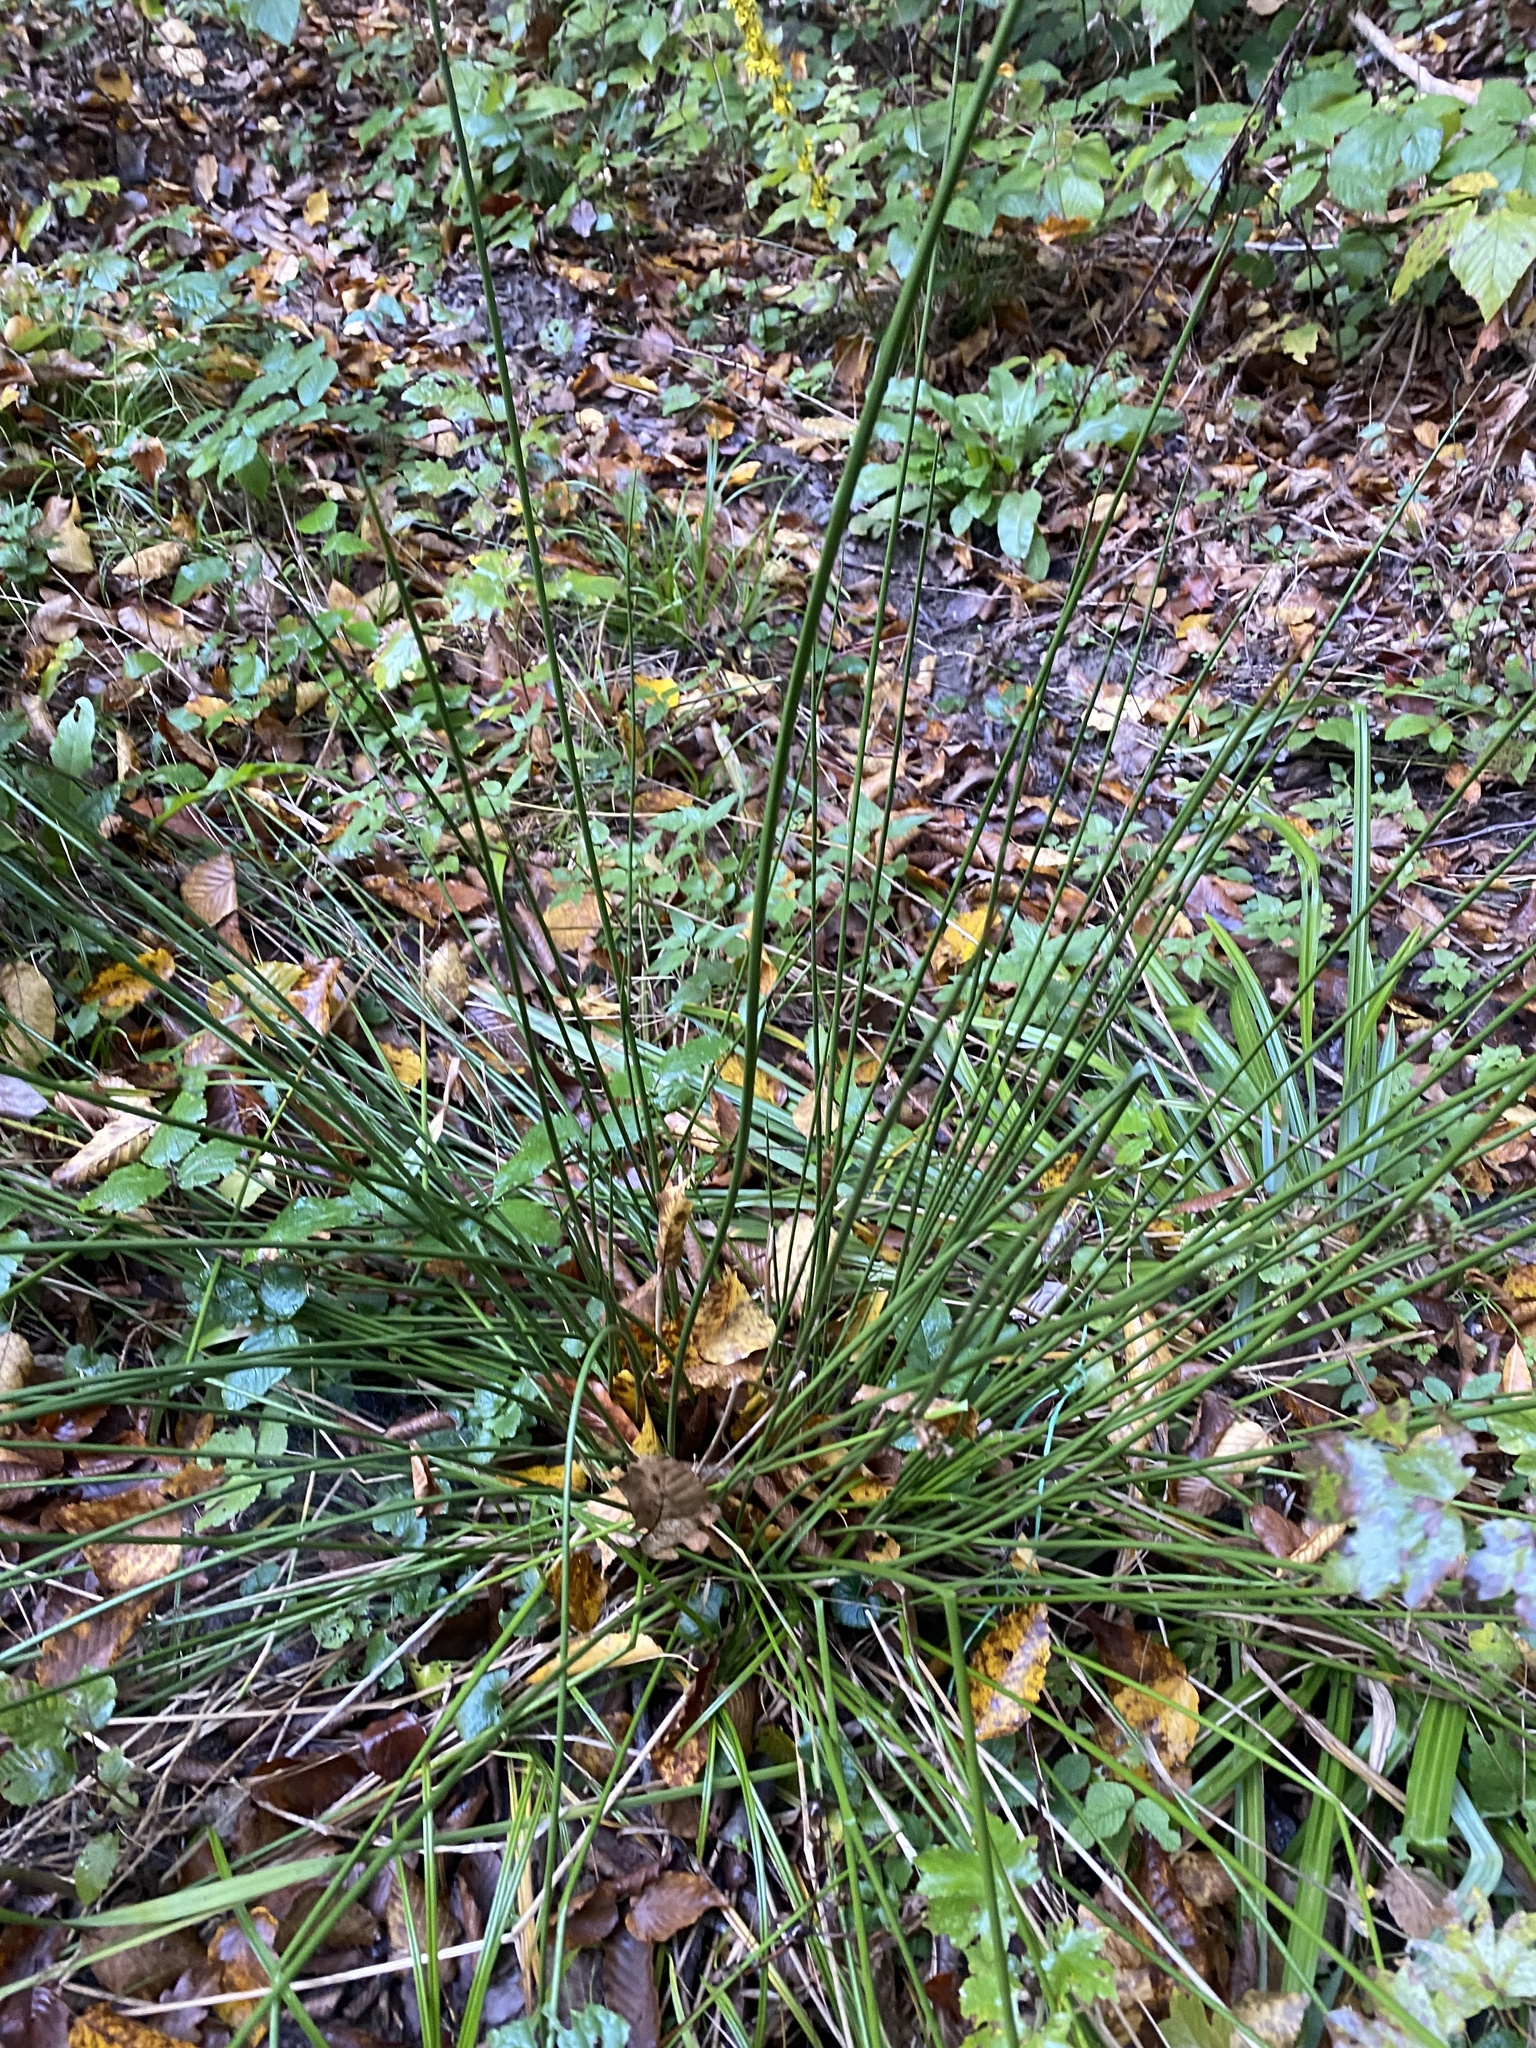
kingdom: Plantae
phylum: Tracheophyta
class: Liliopsida
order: Poales
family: Juncaceae
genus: Juncus
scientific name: Juncus effusus
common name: Soft rush
